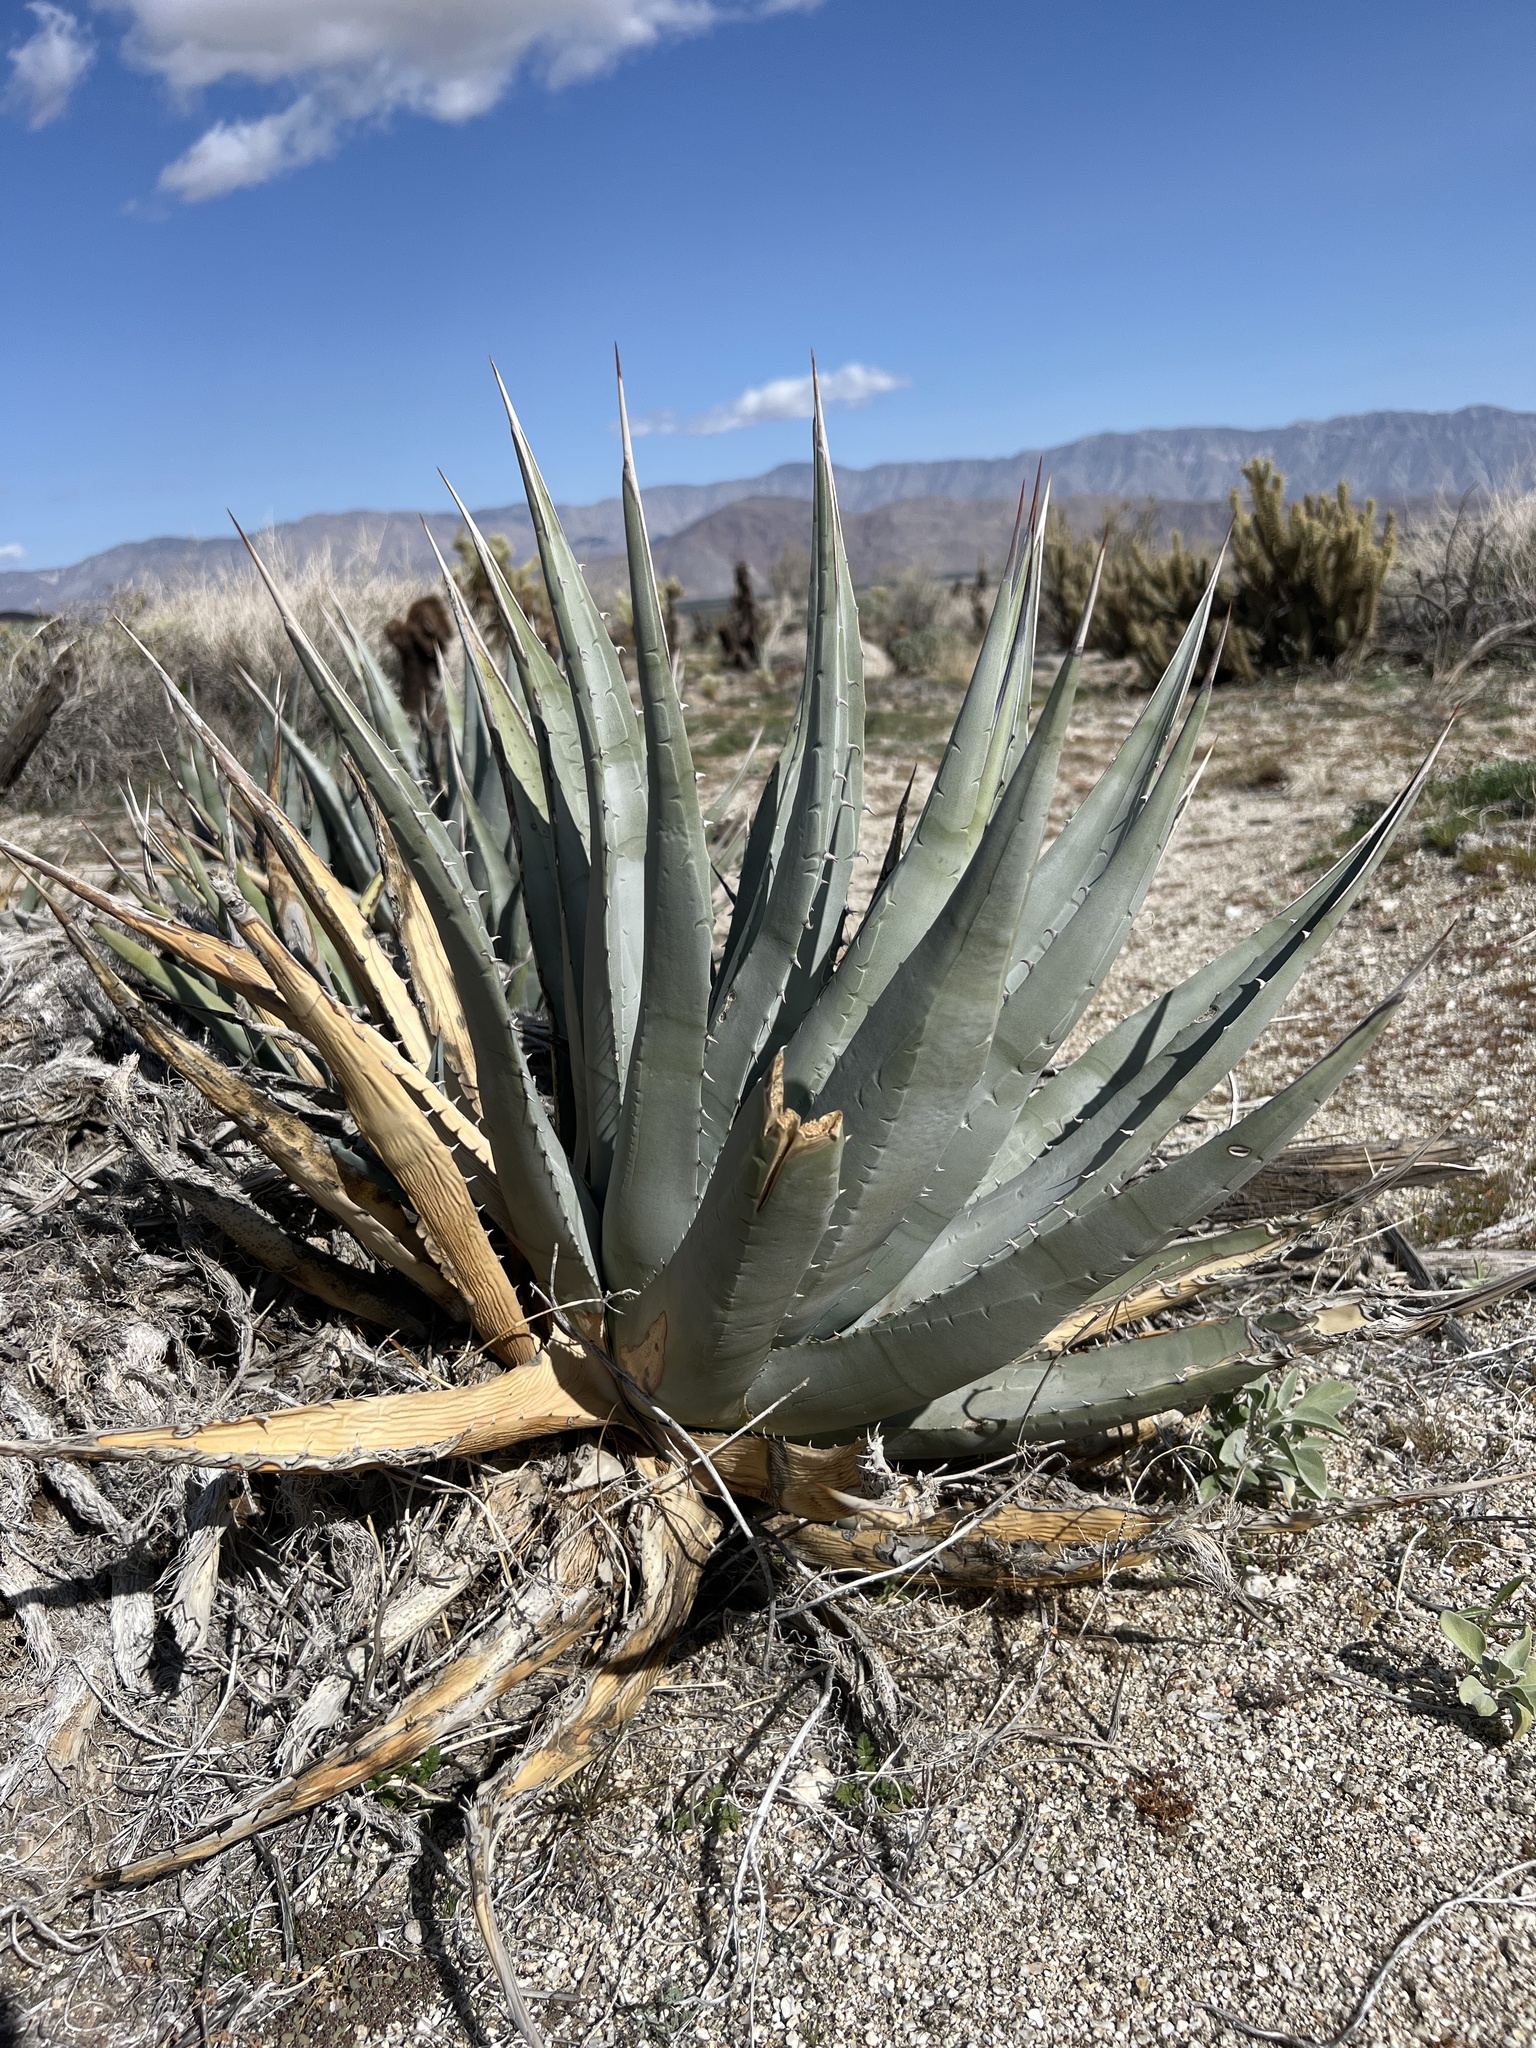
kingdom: Plantae
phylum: Tracheophyta
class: Liliopsida
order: Asparagales
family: Asparagaceae
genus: Agave
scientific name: Agave deserti
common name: Desert agave
